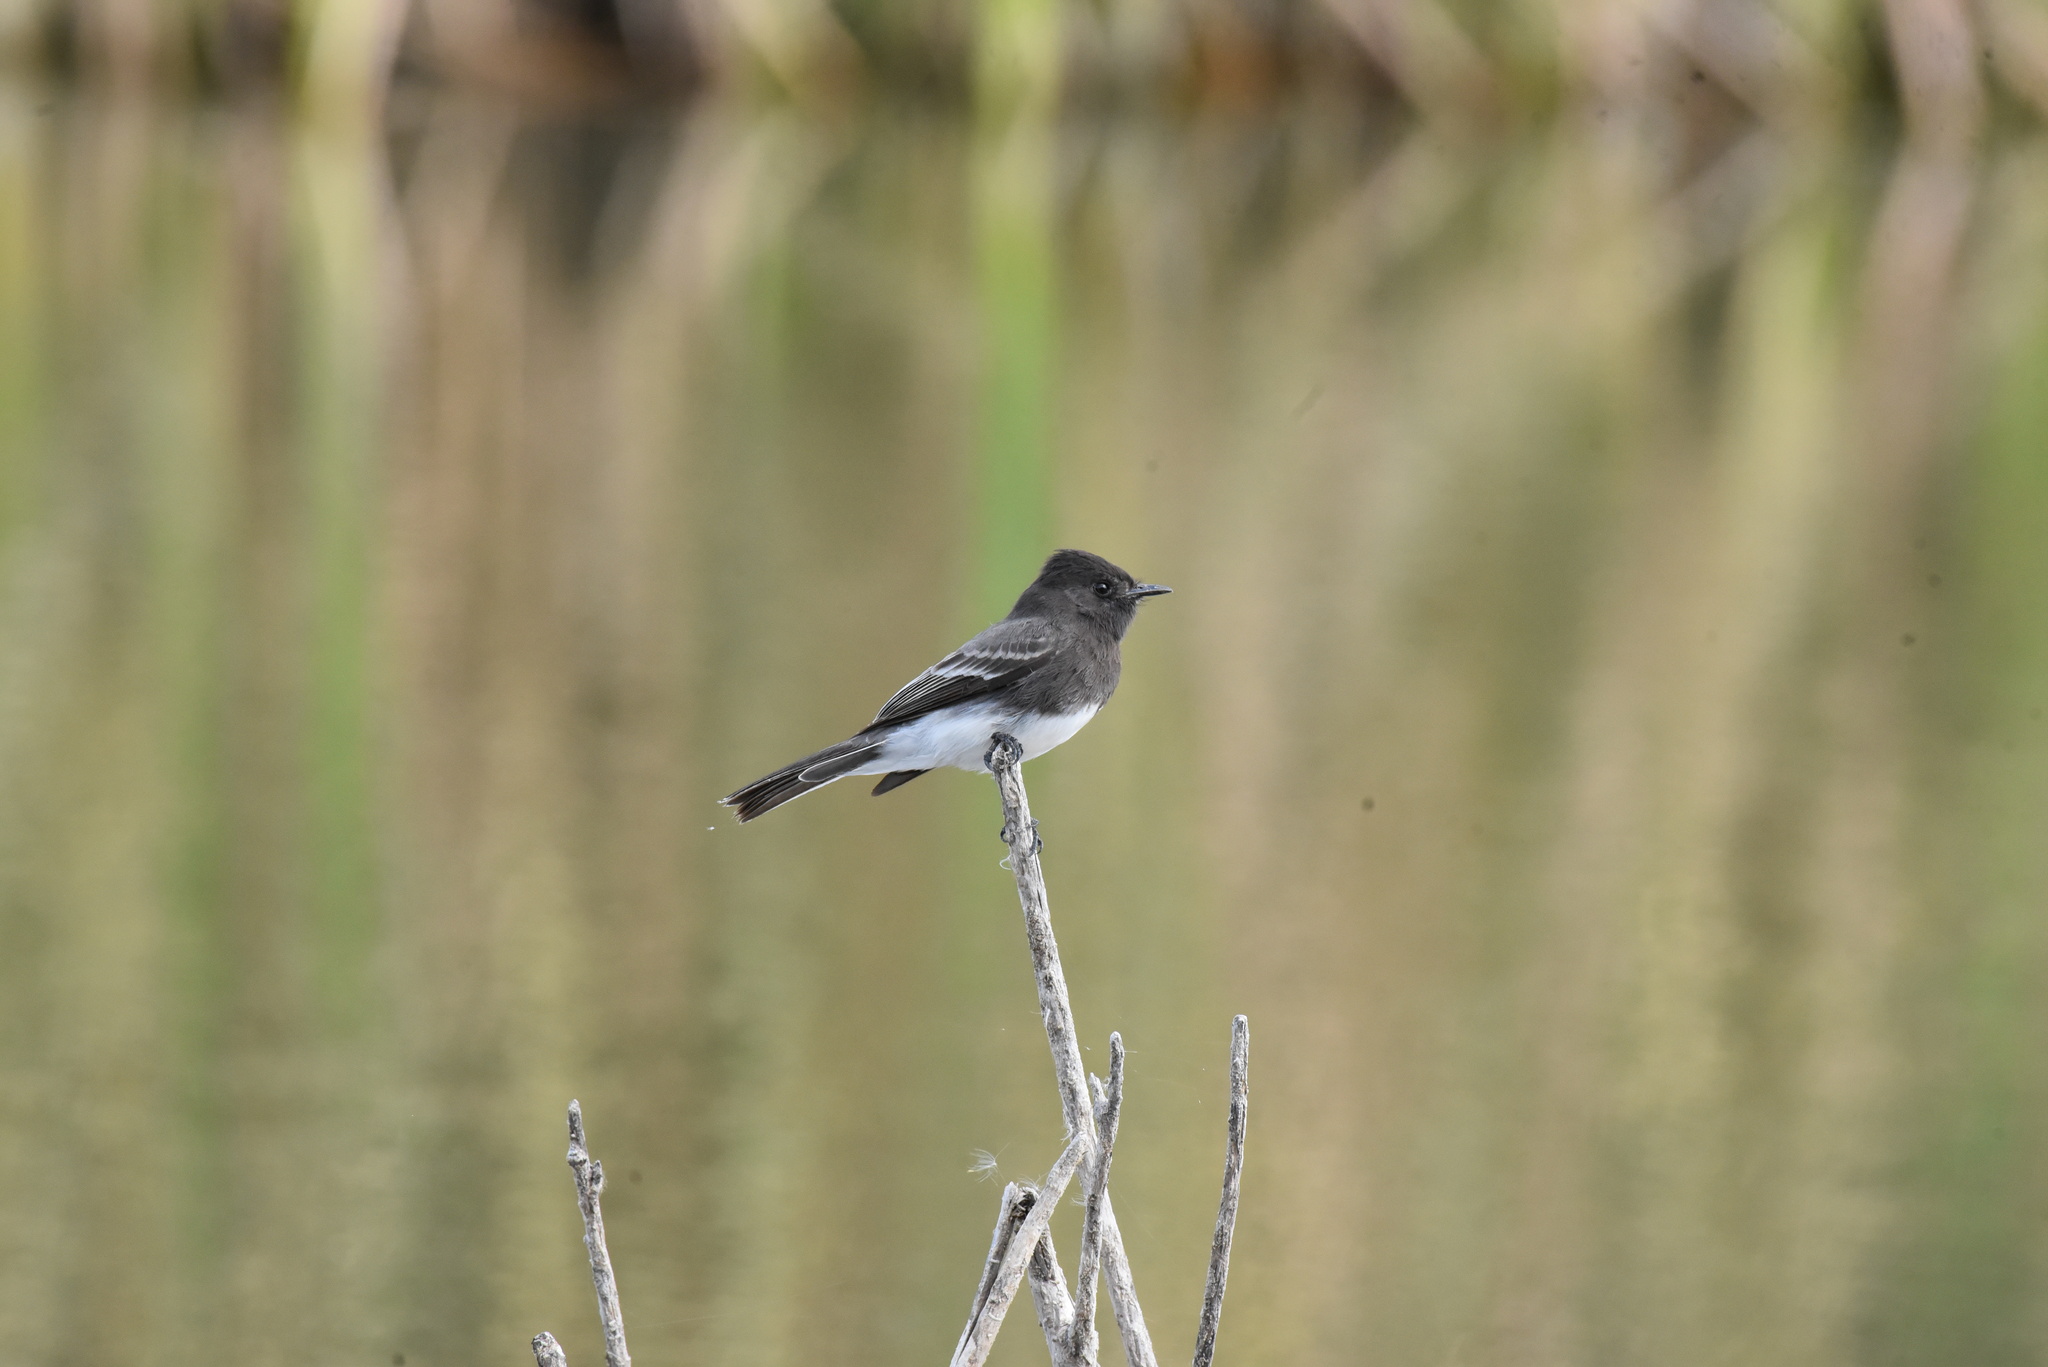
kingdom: Animalia
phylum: Chordata
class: Aves
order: Passeriformes
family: Tyrannidae
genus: Sayornis
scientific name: Sayornis nigricans
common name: Black phoebe
